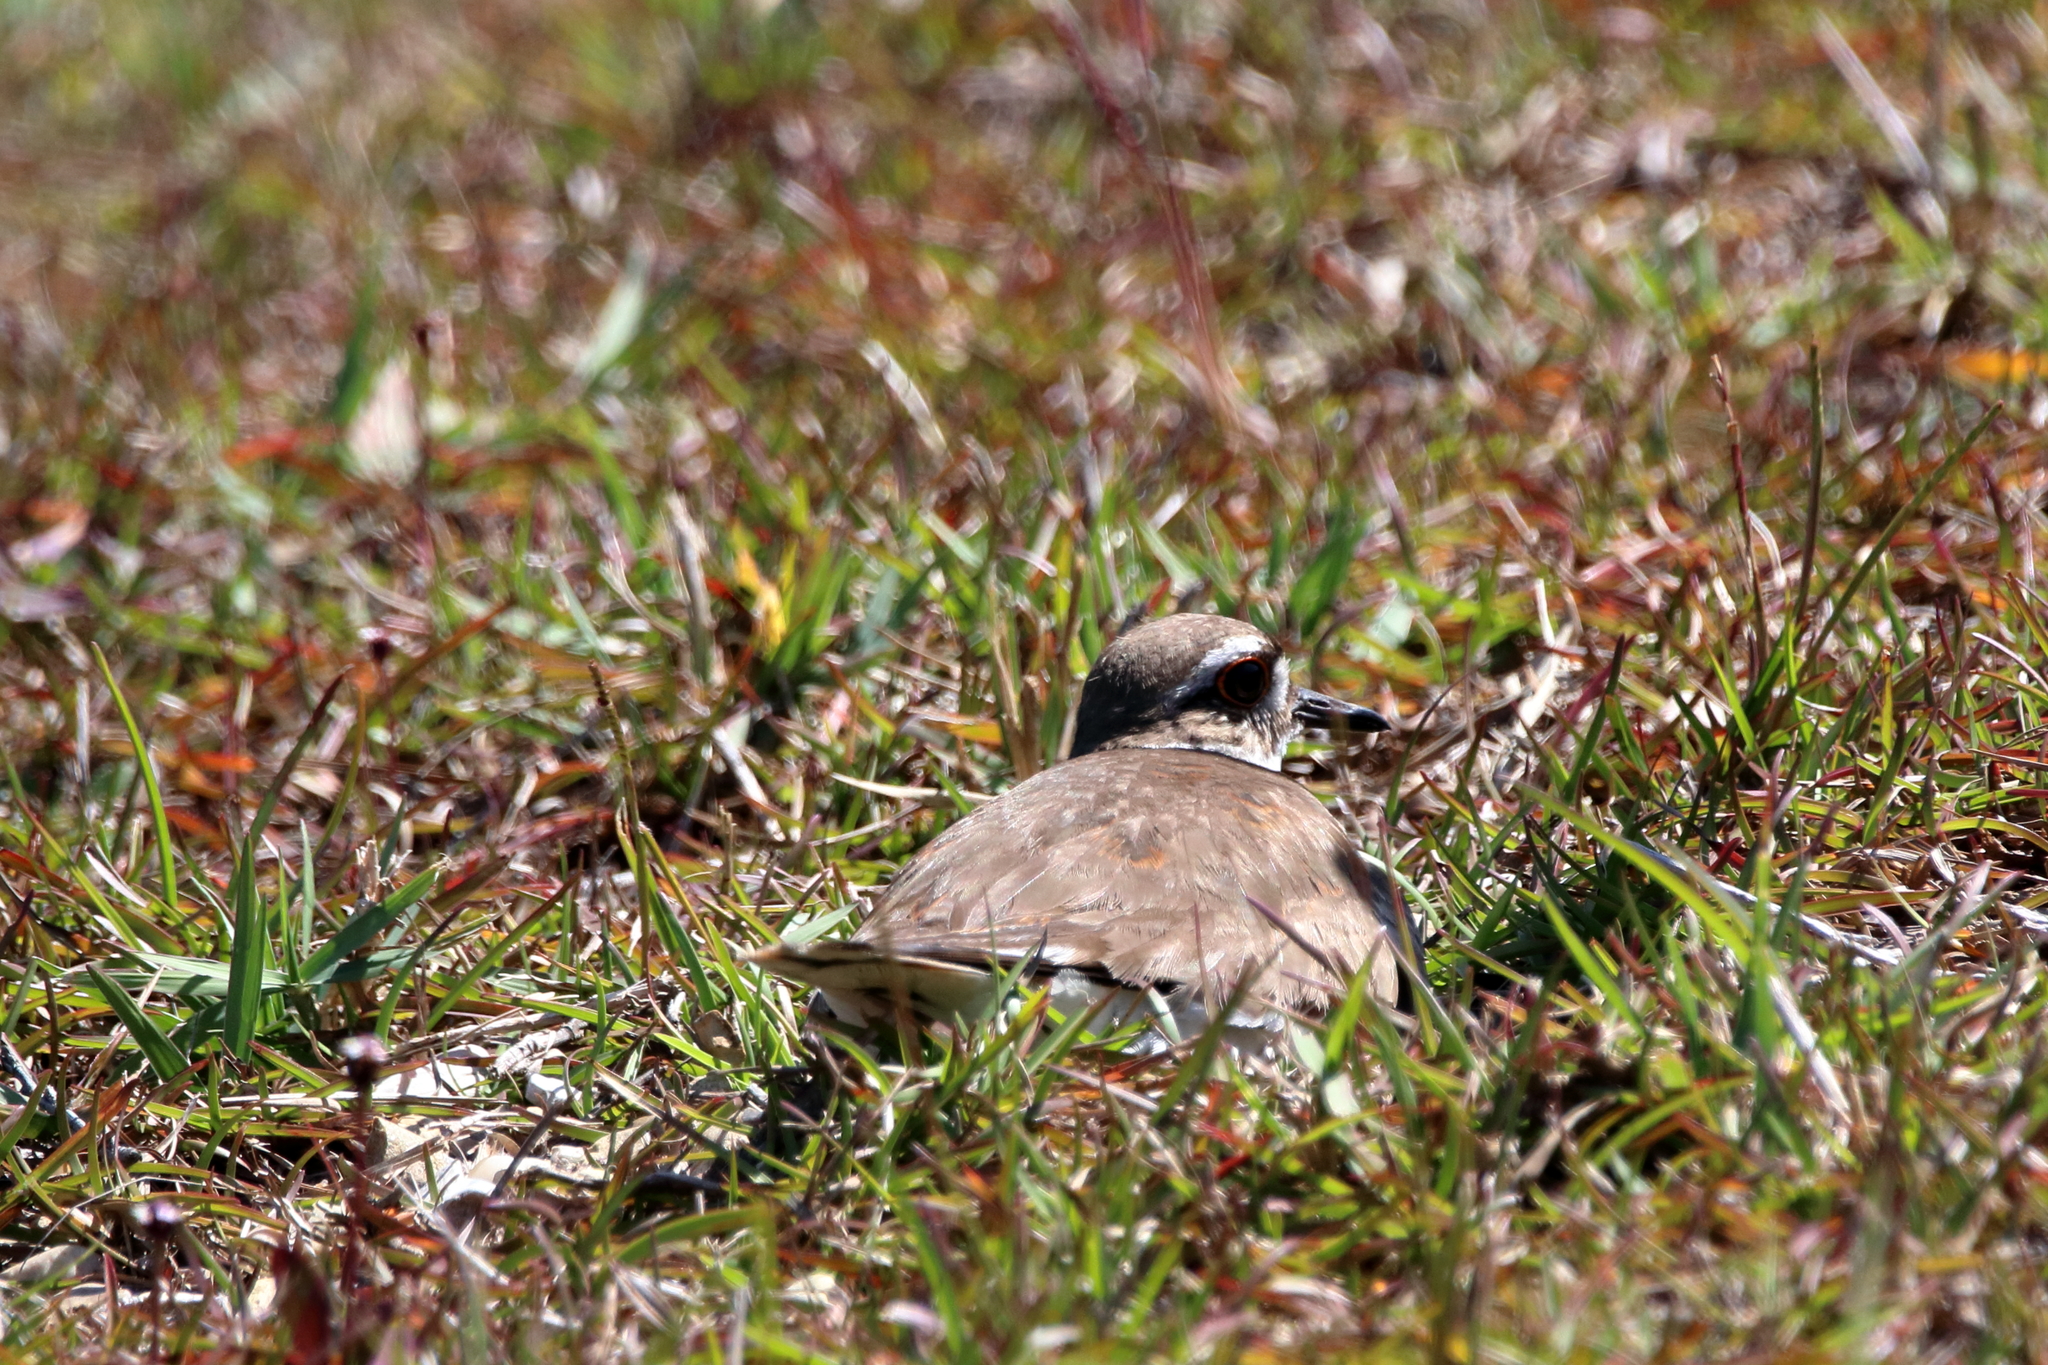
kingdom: Animalia
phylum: Chordata
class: Aves
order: Charadriiformes
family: Charadriidae
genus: Charadrius
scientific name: Charadrius vociferus
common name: Killdeer
